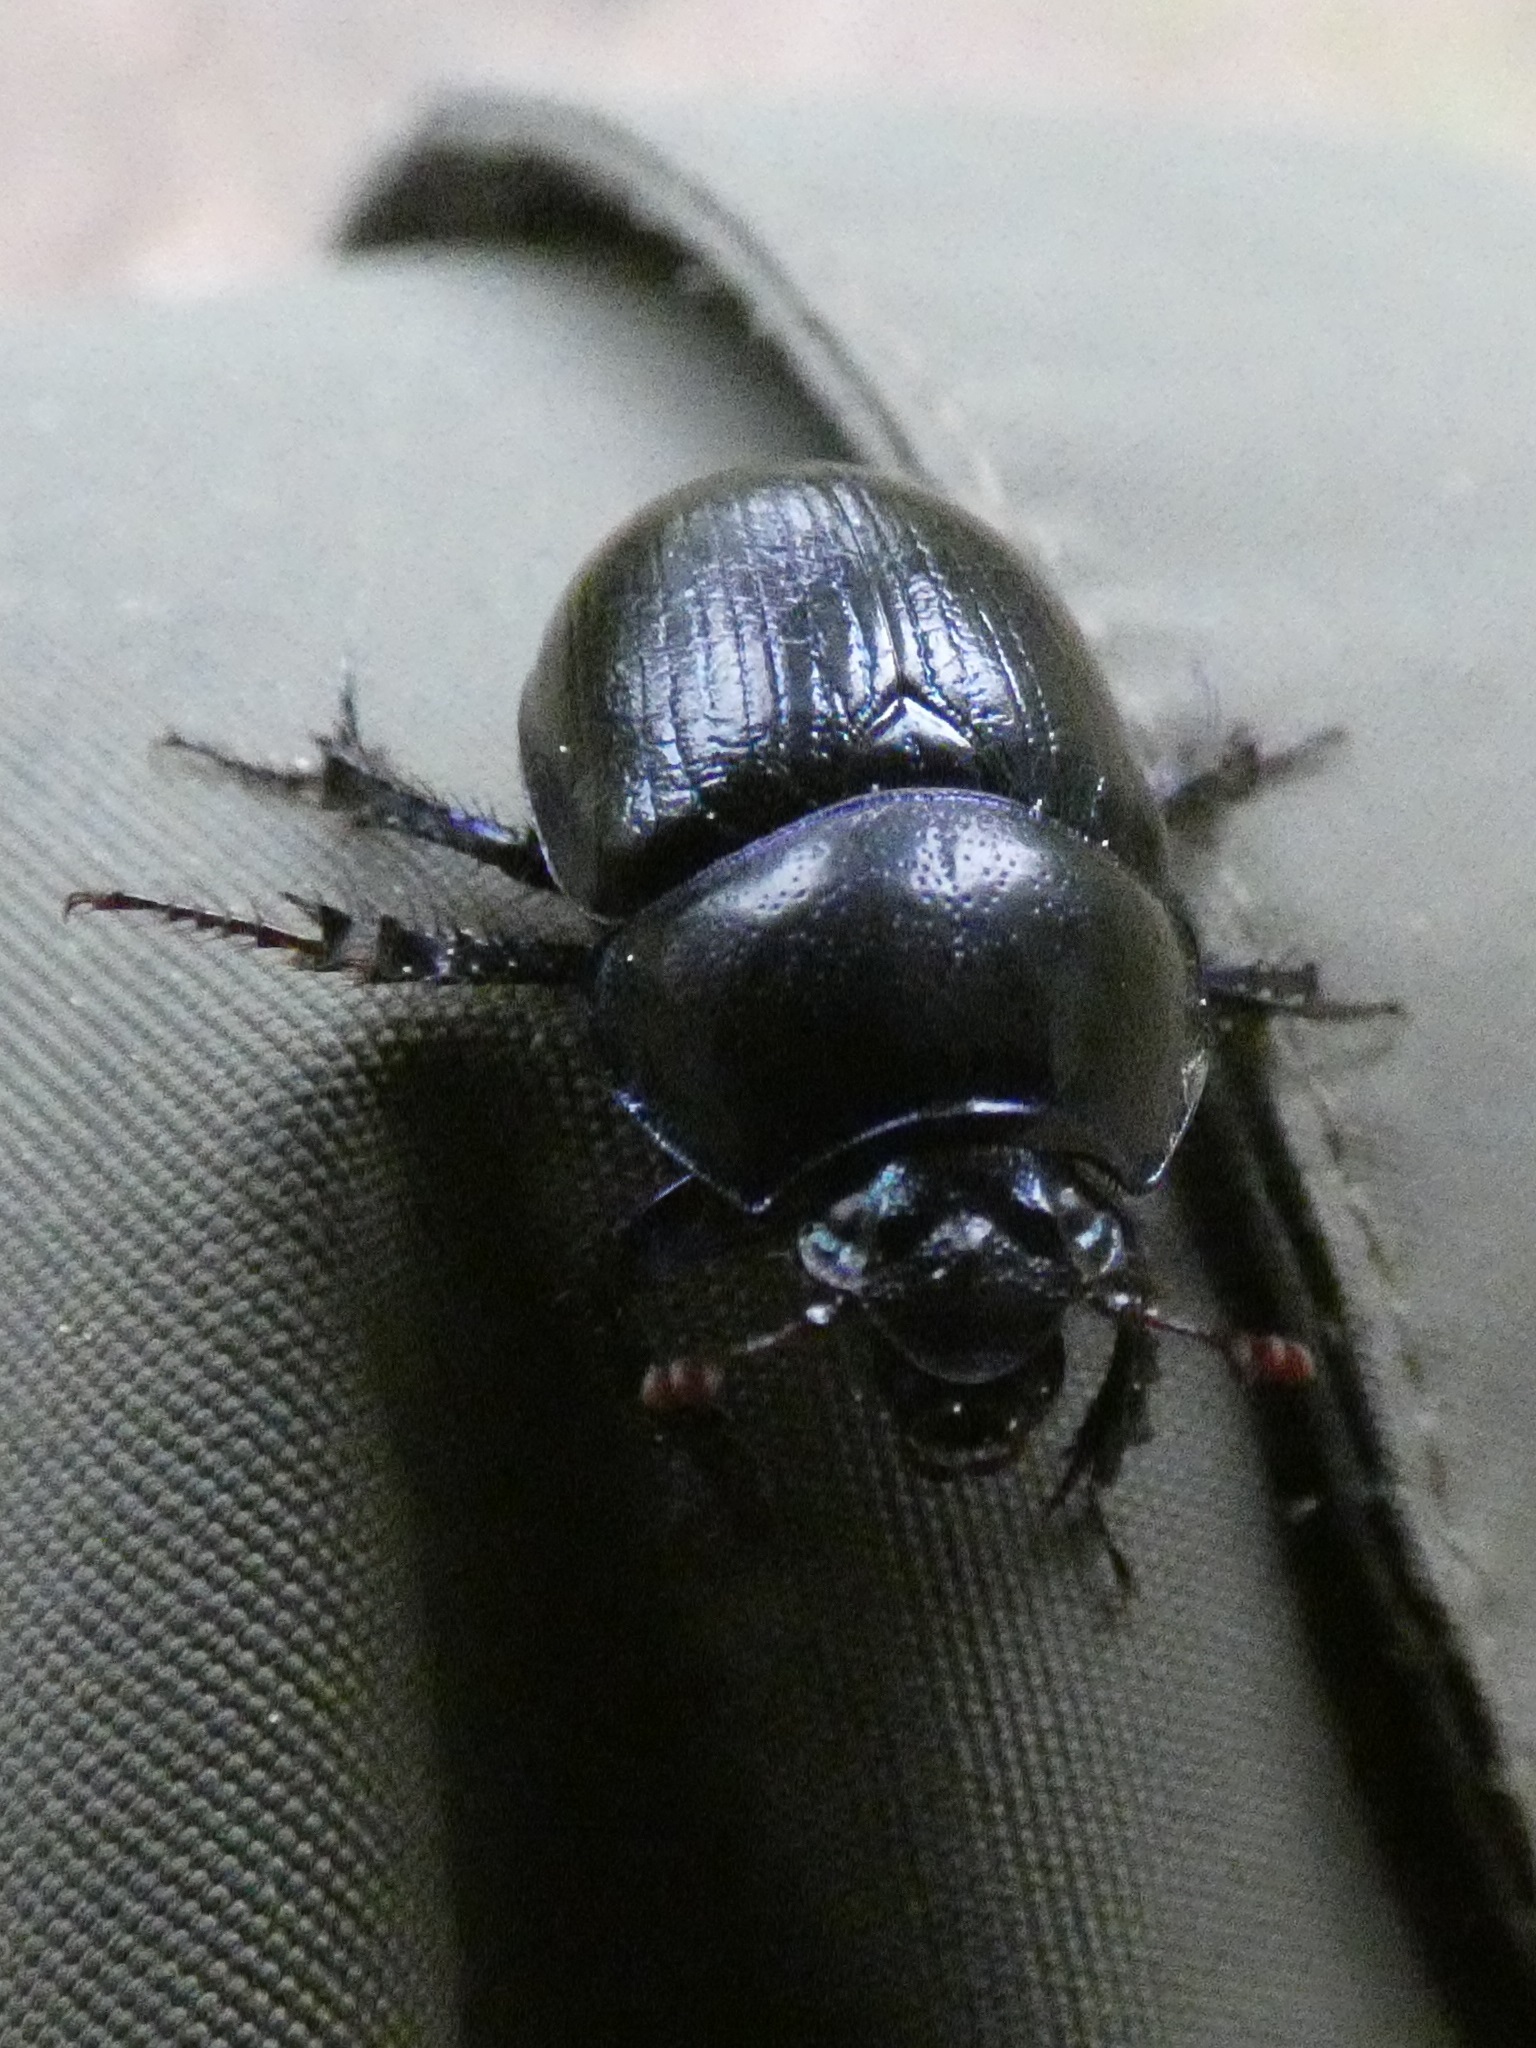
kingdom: Animalia
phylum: Arthropoda
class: Insecta
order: Coleoptera
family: Geotrupidae
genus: Anoplotrupes
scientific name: Anoplotrupes stercorosus
